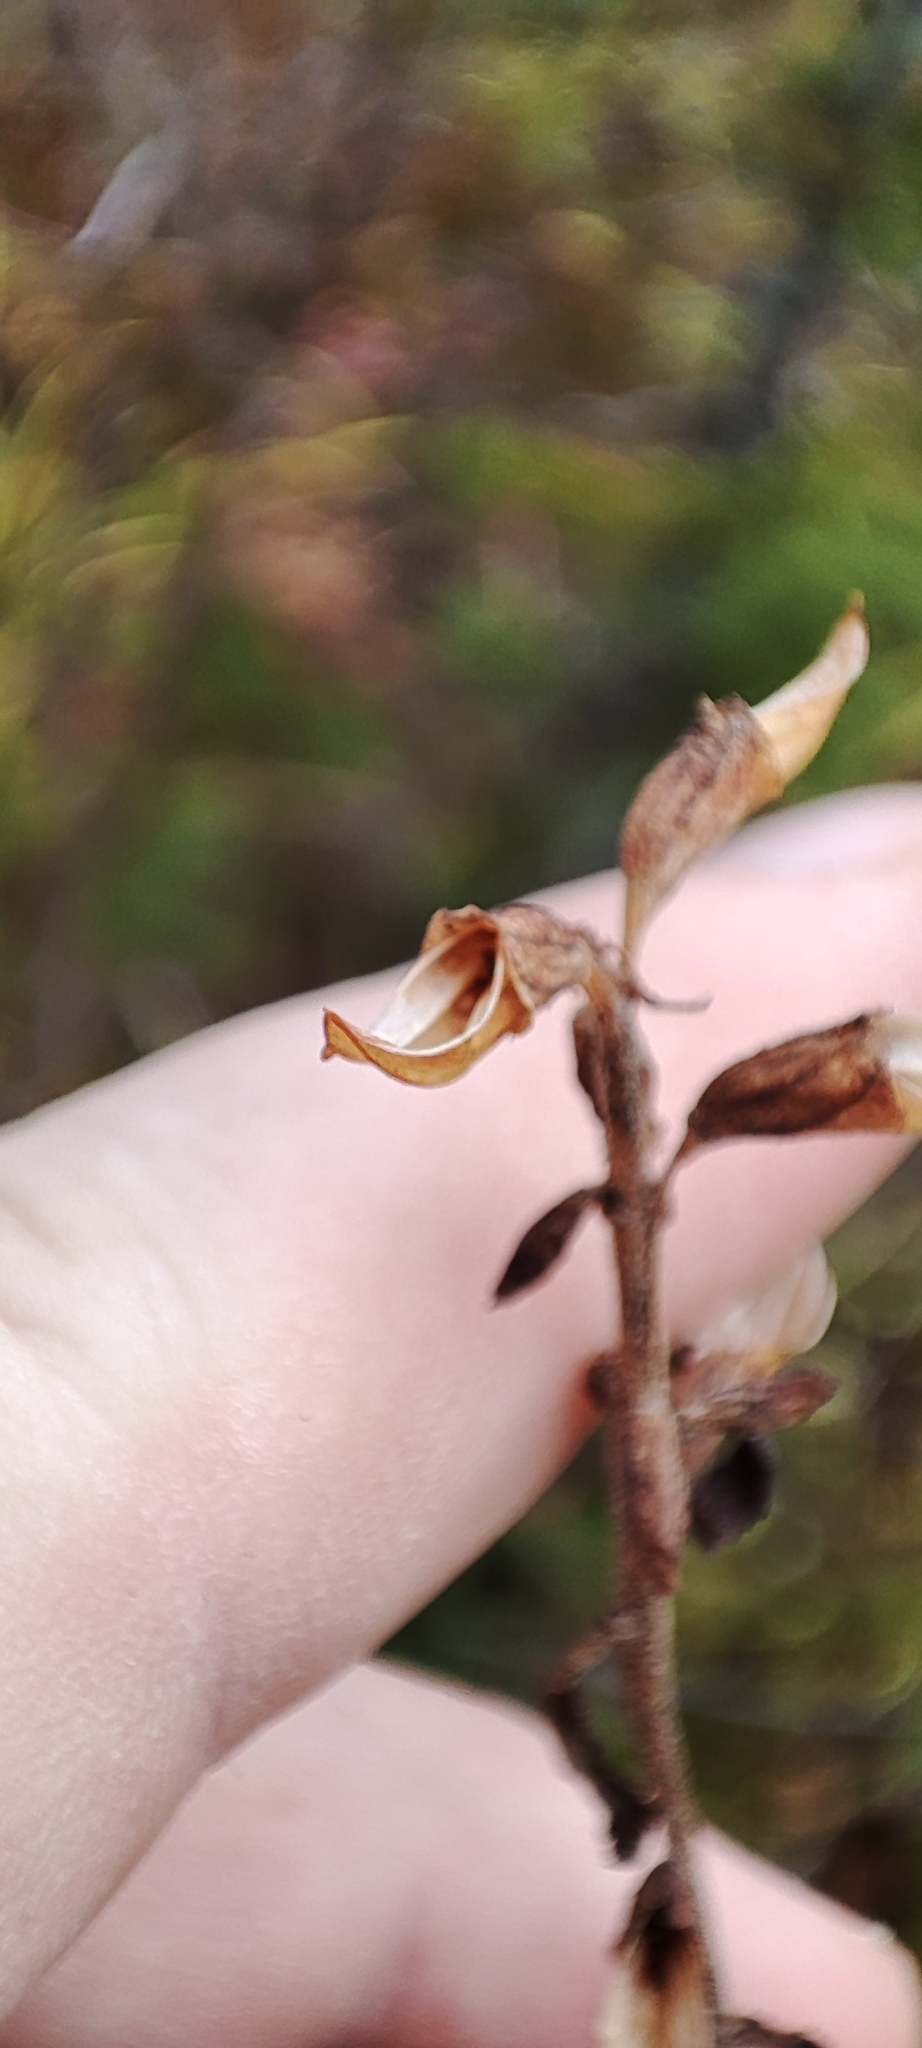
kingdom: Plantae
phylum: Tracheophyta
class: Magnoliopsida
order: Lamiales
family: Orobanchaceae
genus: Pedicularis
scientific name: Pedicularis labradorica
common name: Labrador lousewort
